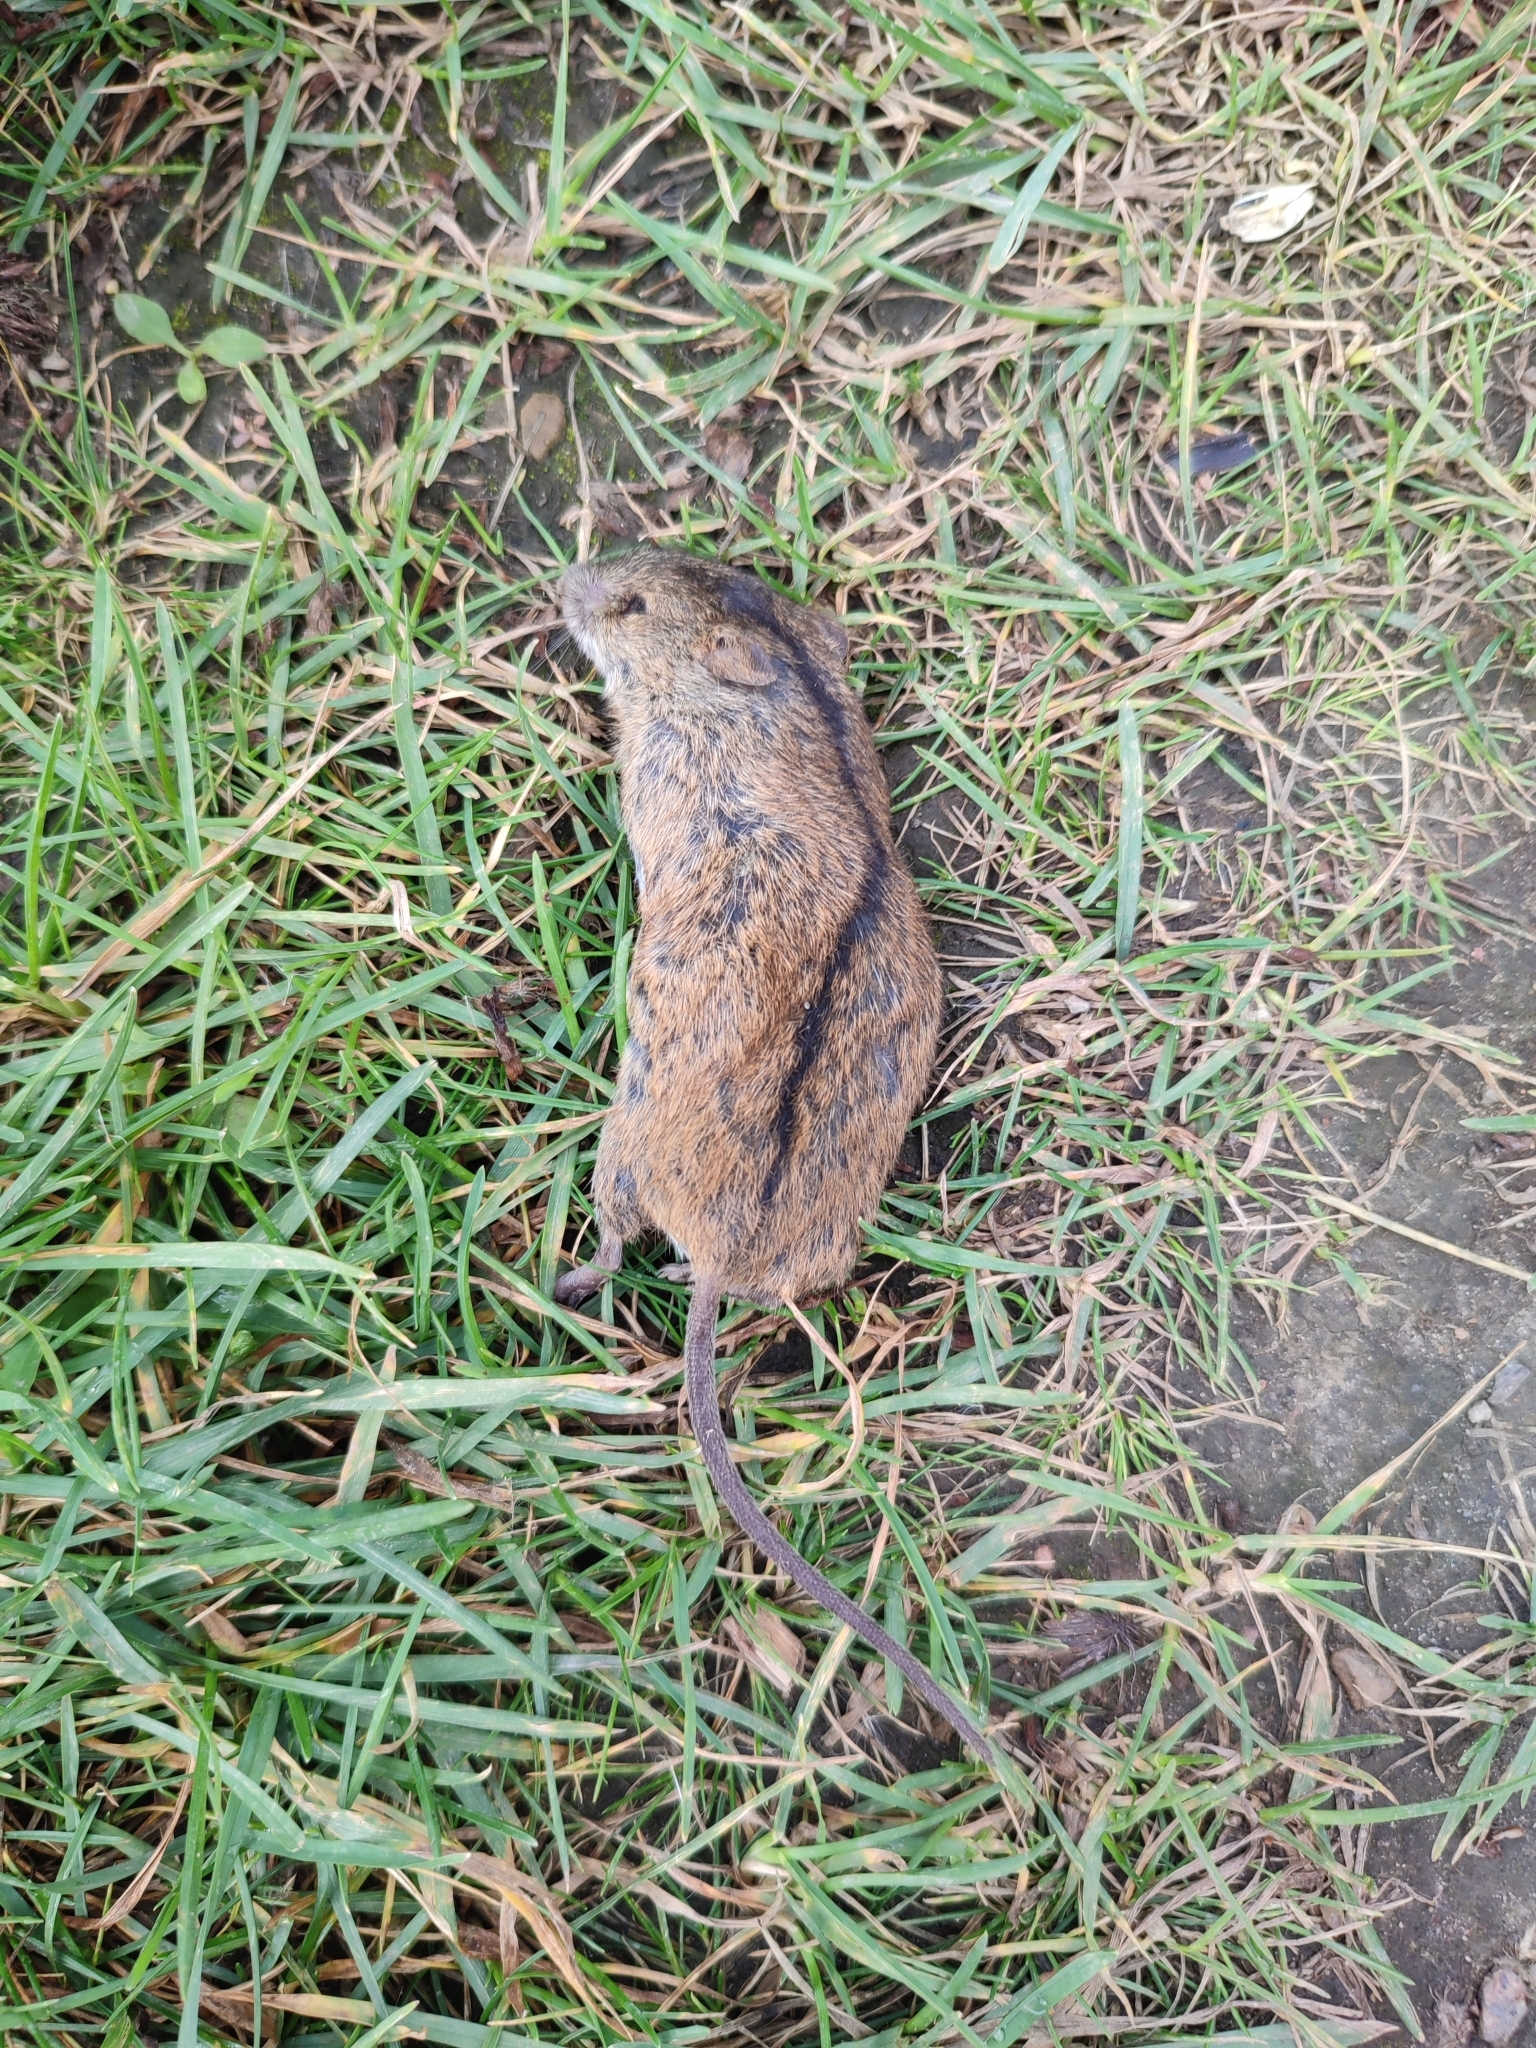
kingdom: Animalia
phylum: Chordata
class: Mammalia
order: Rodentia
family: Muridae
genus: Apodemus
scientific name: Apodemus agrarius
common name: Striped field mouse
